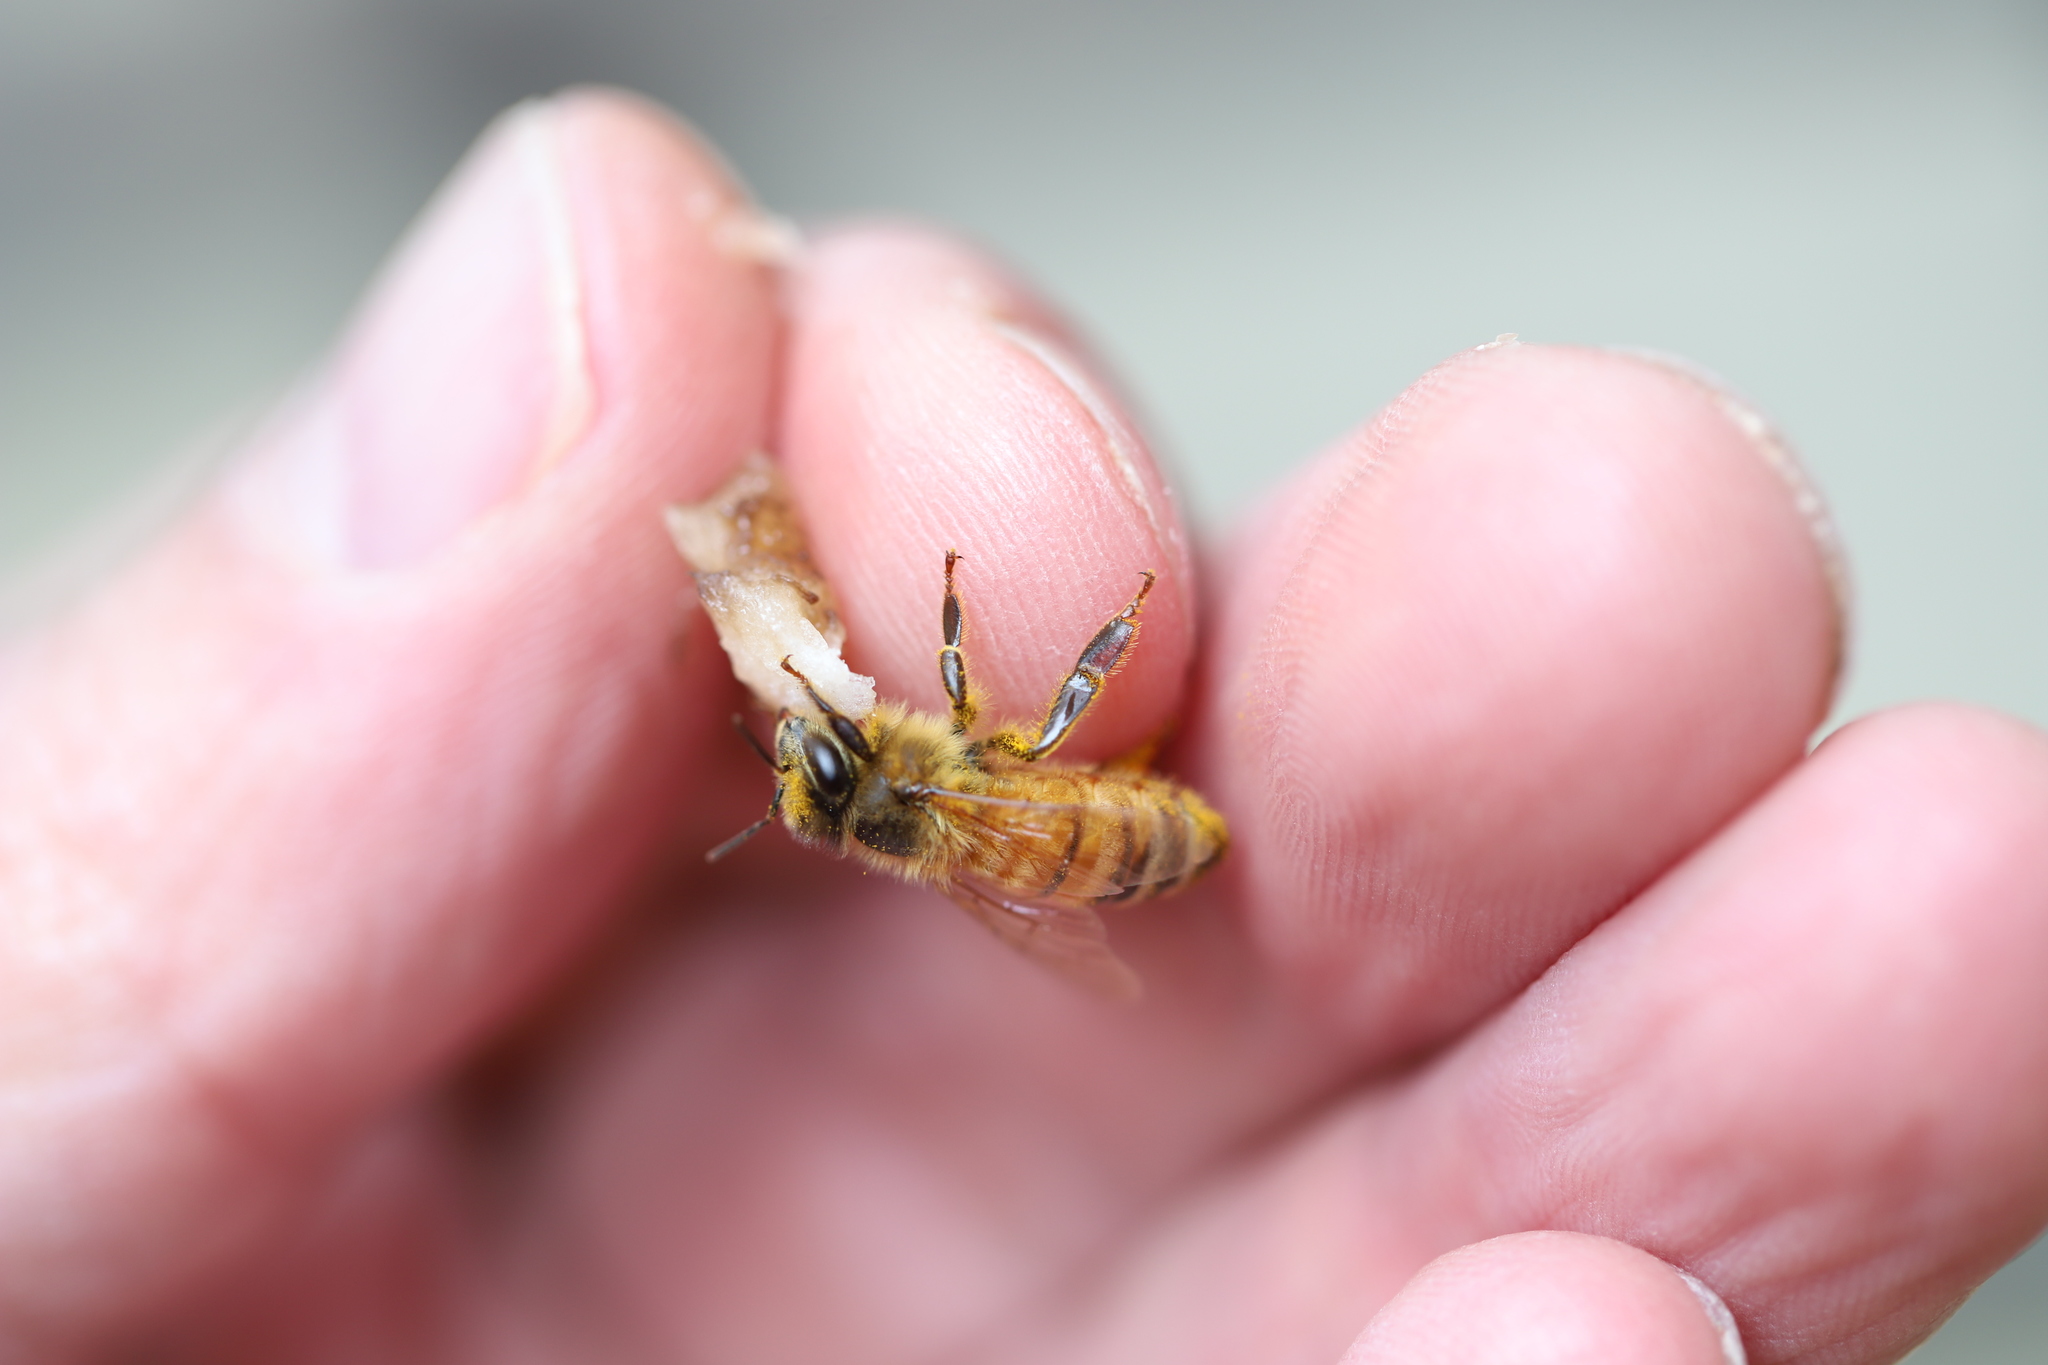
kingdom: Animalia
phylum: Arthropoda
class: Insecta
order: Hymenoptera
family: Apidae
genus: Apis
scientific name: Apis mellifera
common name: Honey bee
